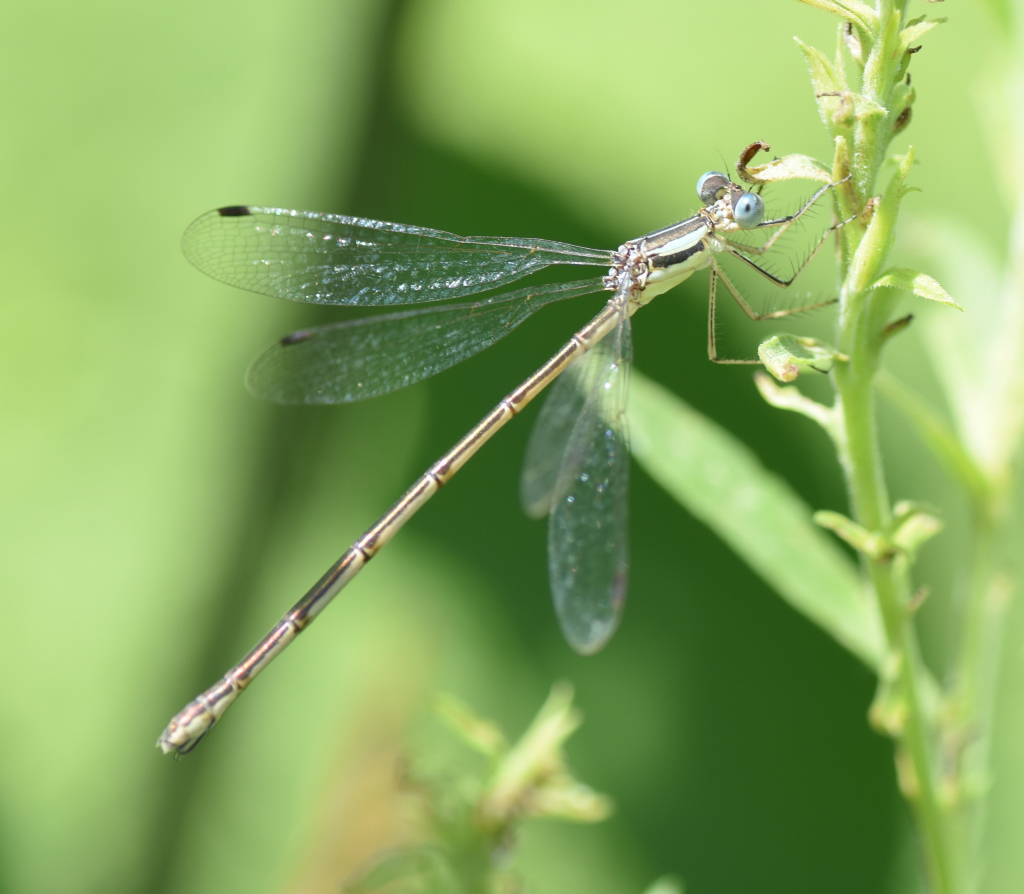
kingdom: Animalia
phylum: Arthropoda
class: Insecta
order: Odonata
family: Lestidae
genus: Lestes
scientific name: Lestes rectangularis
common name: Slender spreadwing
